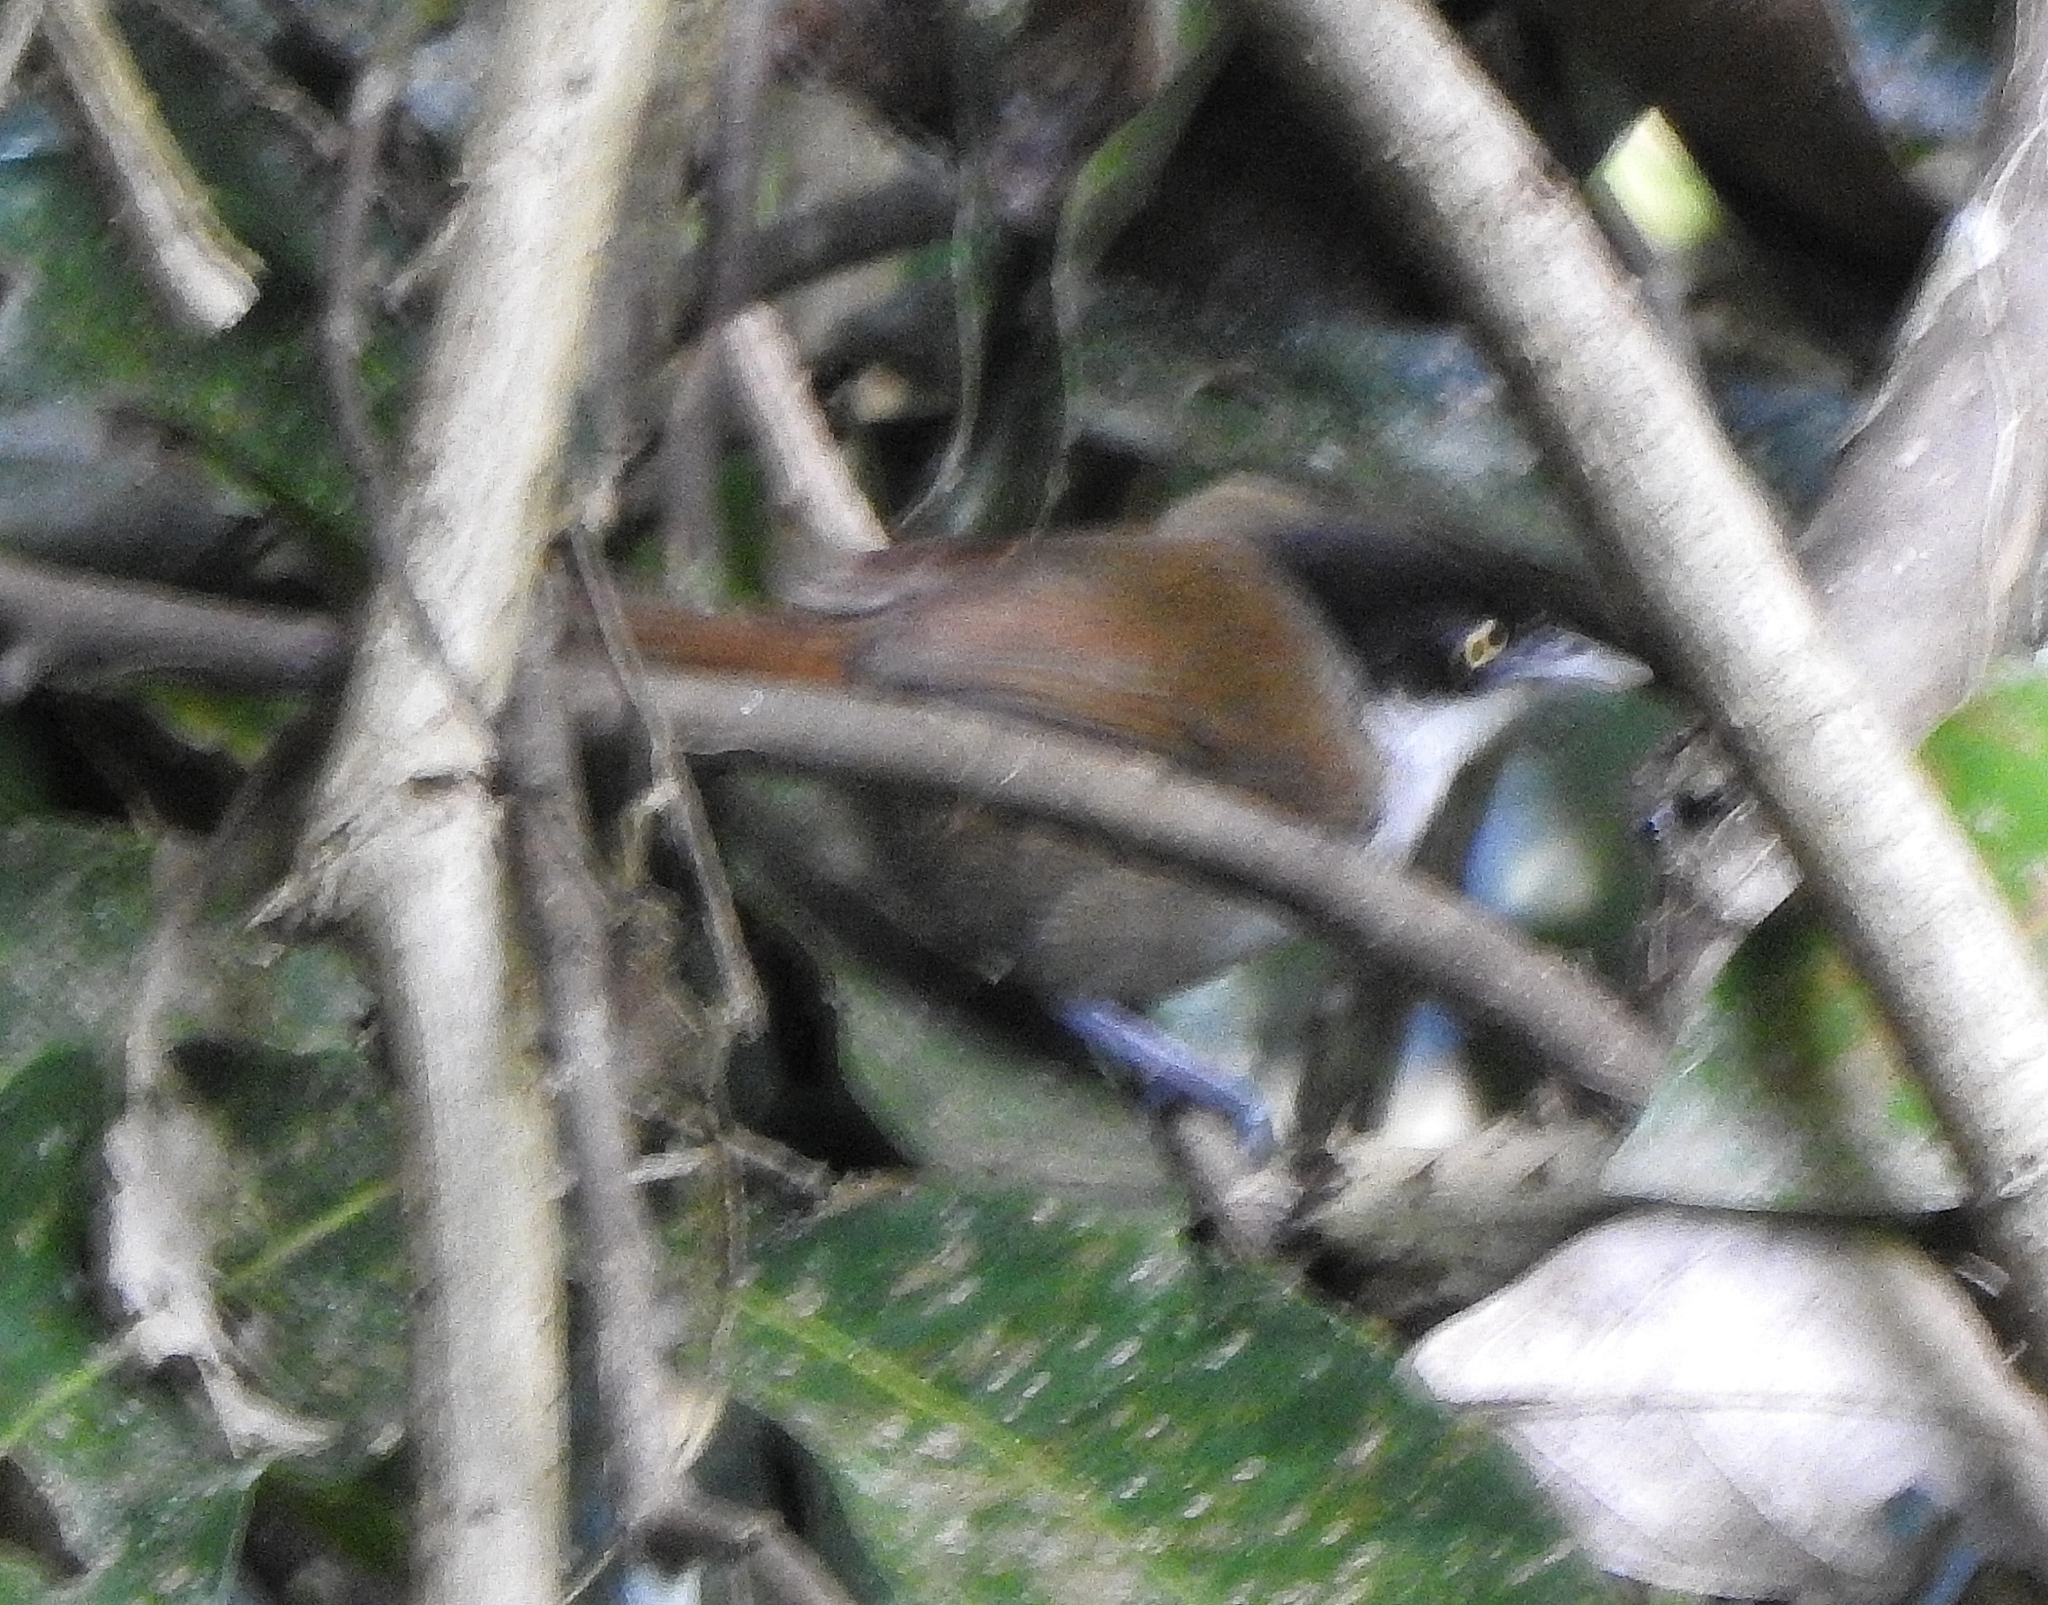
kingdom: Animalia
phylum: Chordata
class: Aves
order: Passeriformes
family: Timaliidae
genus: Rhopocichla
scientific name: Rhopocichla atriceps
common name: Dark-fronted babbler
